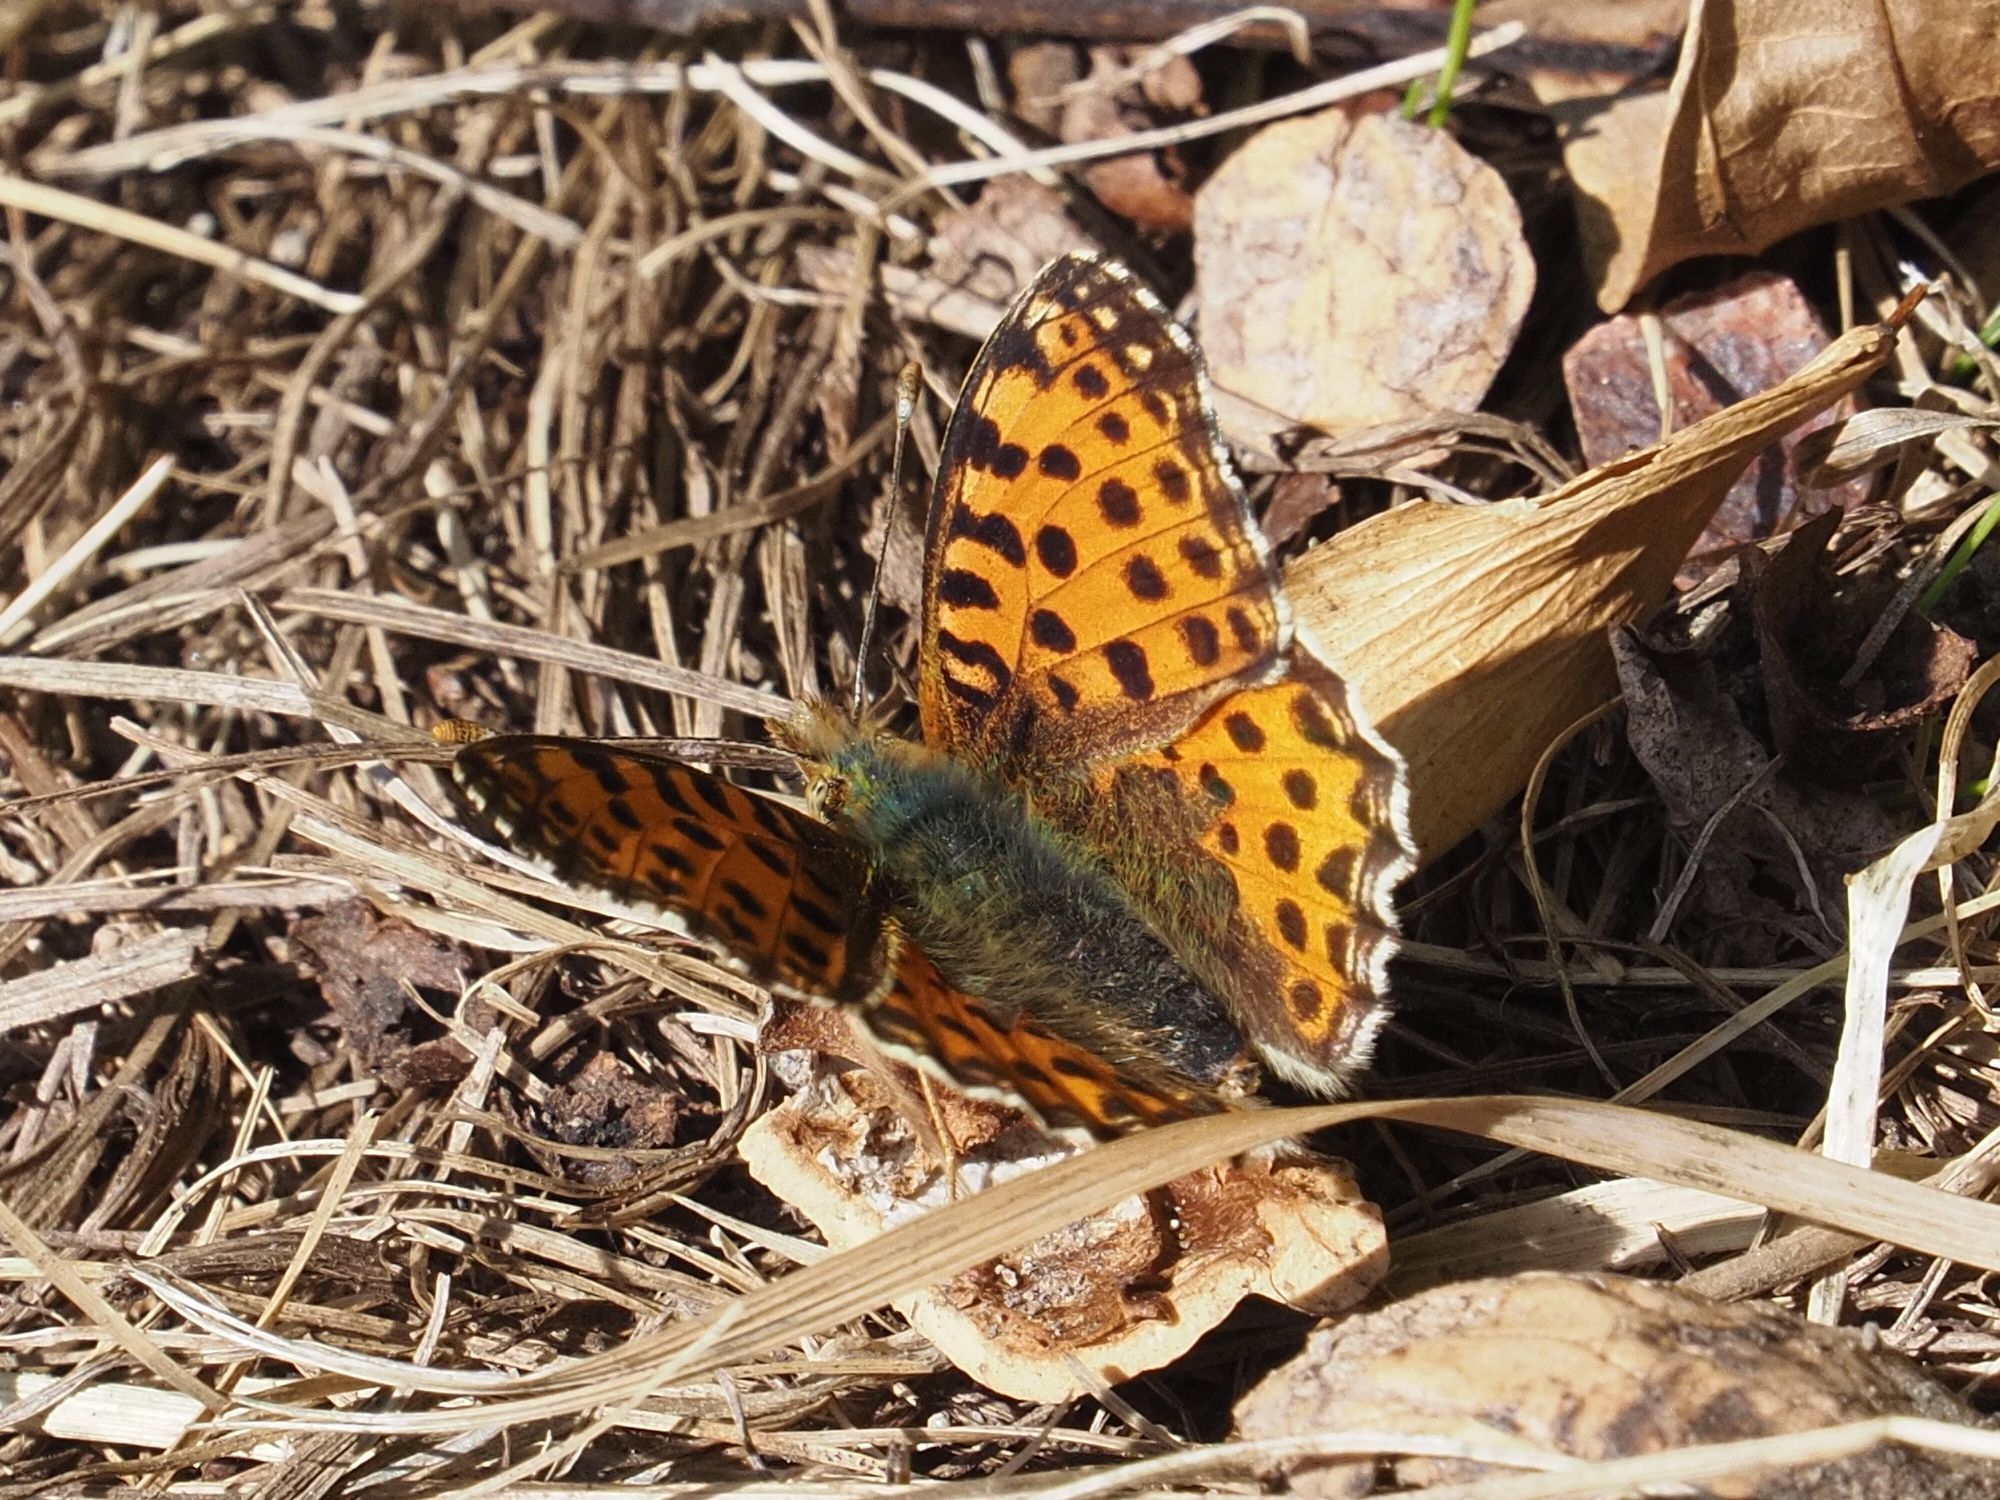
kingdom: Animalia
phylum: Arthropoda
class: Insecta
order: Lepidoptera
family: Nymphalidae
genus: Issoria
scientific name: Issoria lathonia
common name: Queen of spain fritillary
